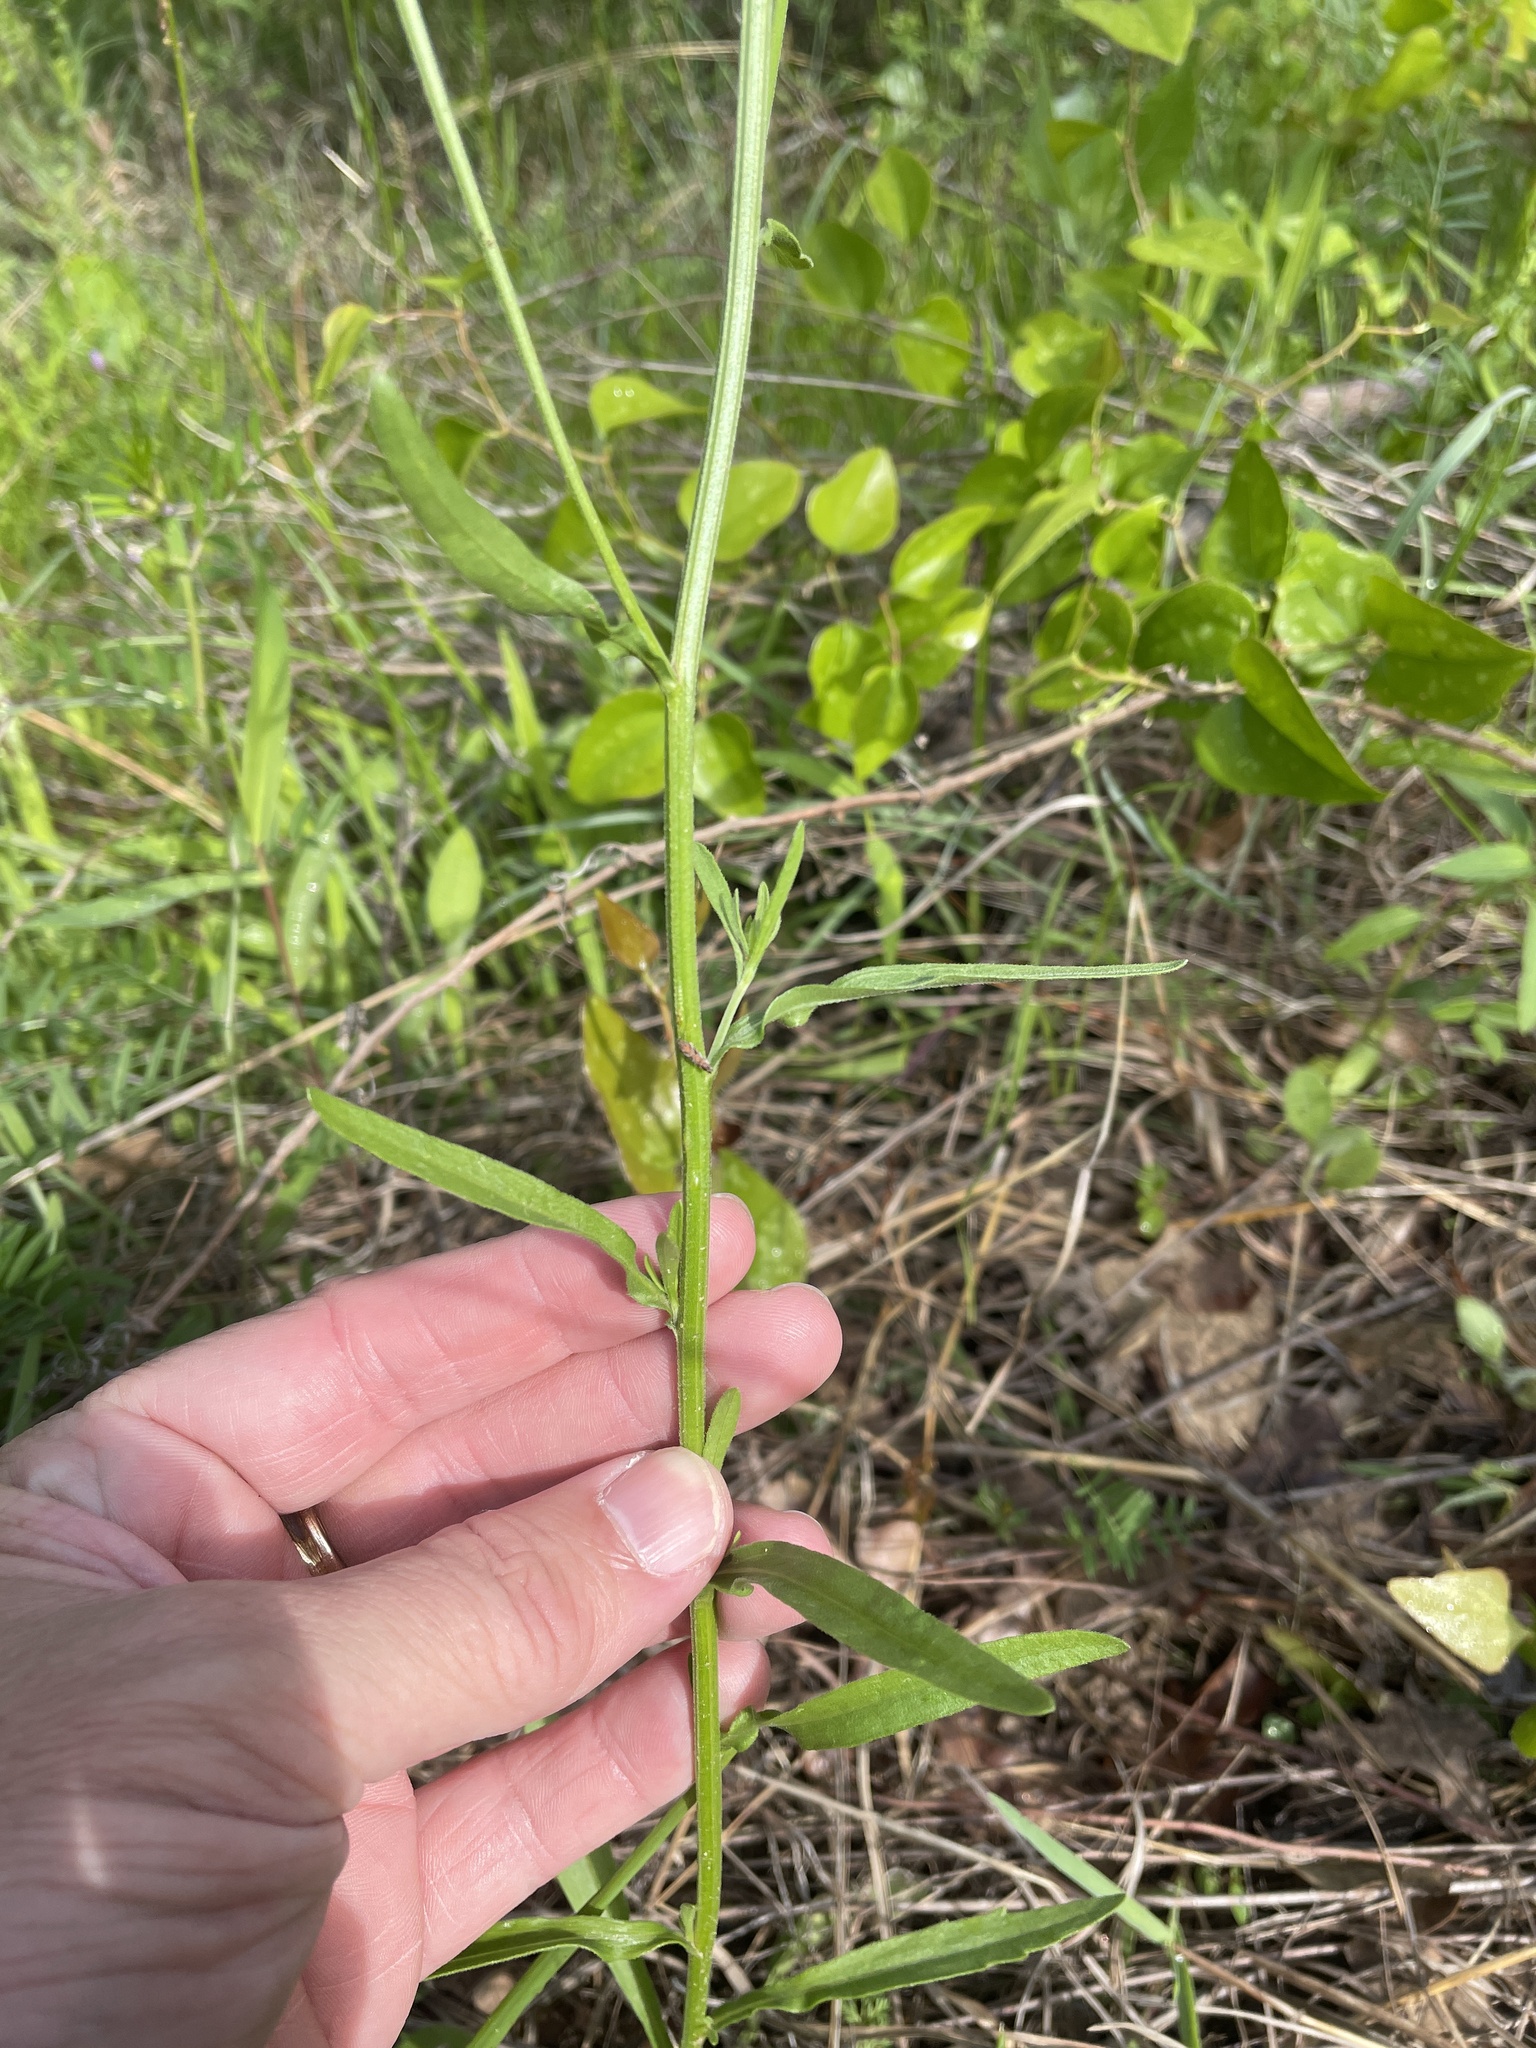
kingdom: Plantae
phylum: Tracheophyta
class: Magnoliopsida
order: Asterales
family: Asteraceae
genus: Erigeron
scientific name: Erigeron strigosus
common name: Common eastern fleabane
